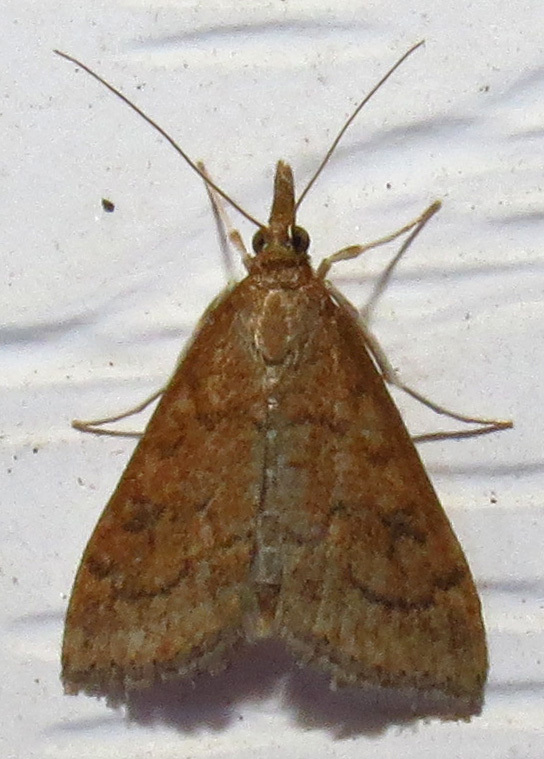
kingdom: Animalia
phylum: Arthropoda
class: Insecta
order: Lepidoptera
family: Crambidae
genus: Udea
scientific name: Udea rubigalis
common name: Celery leaftier moth
